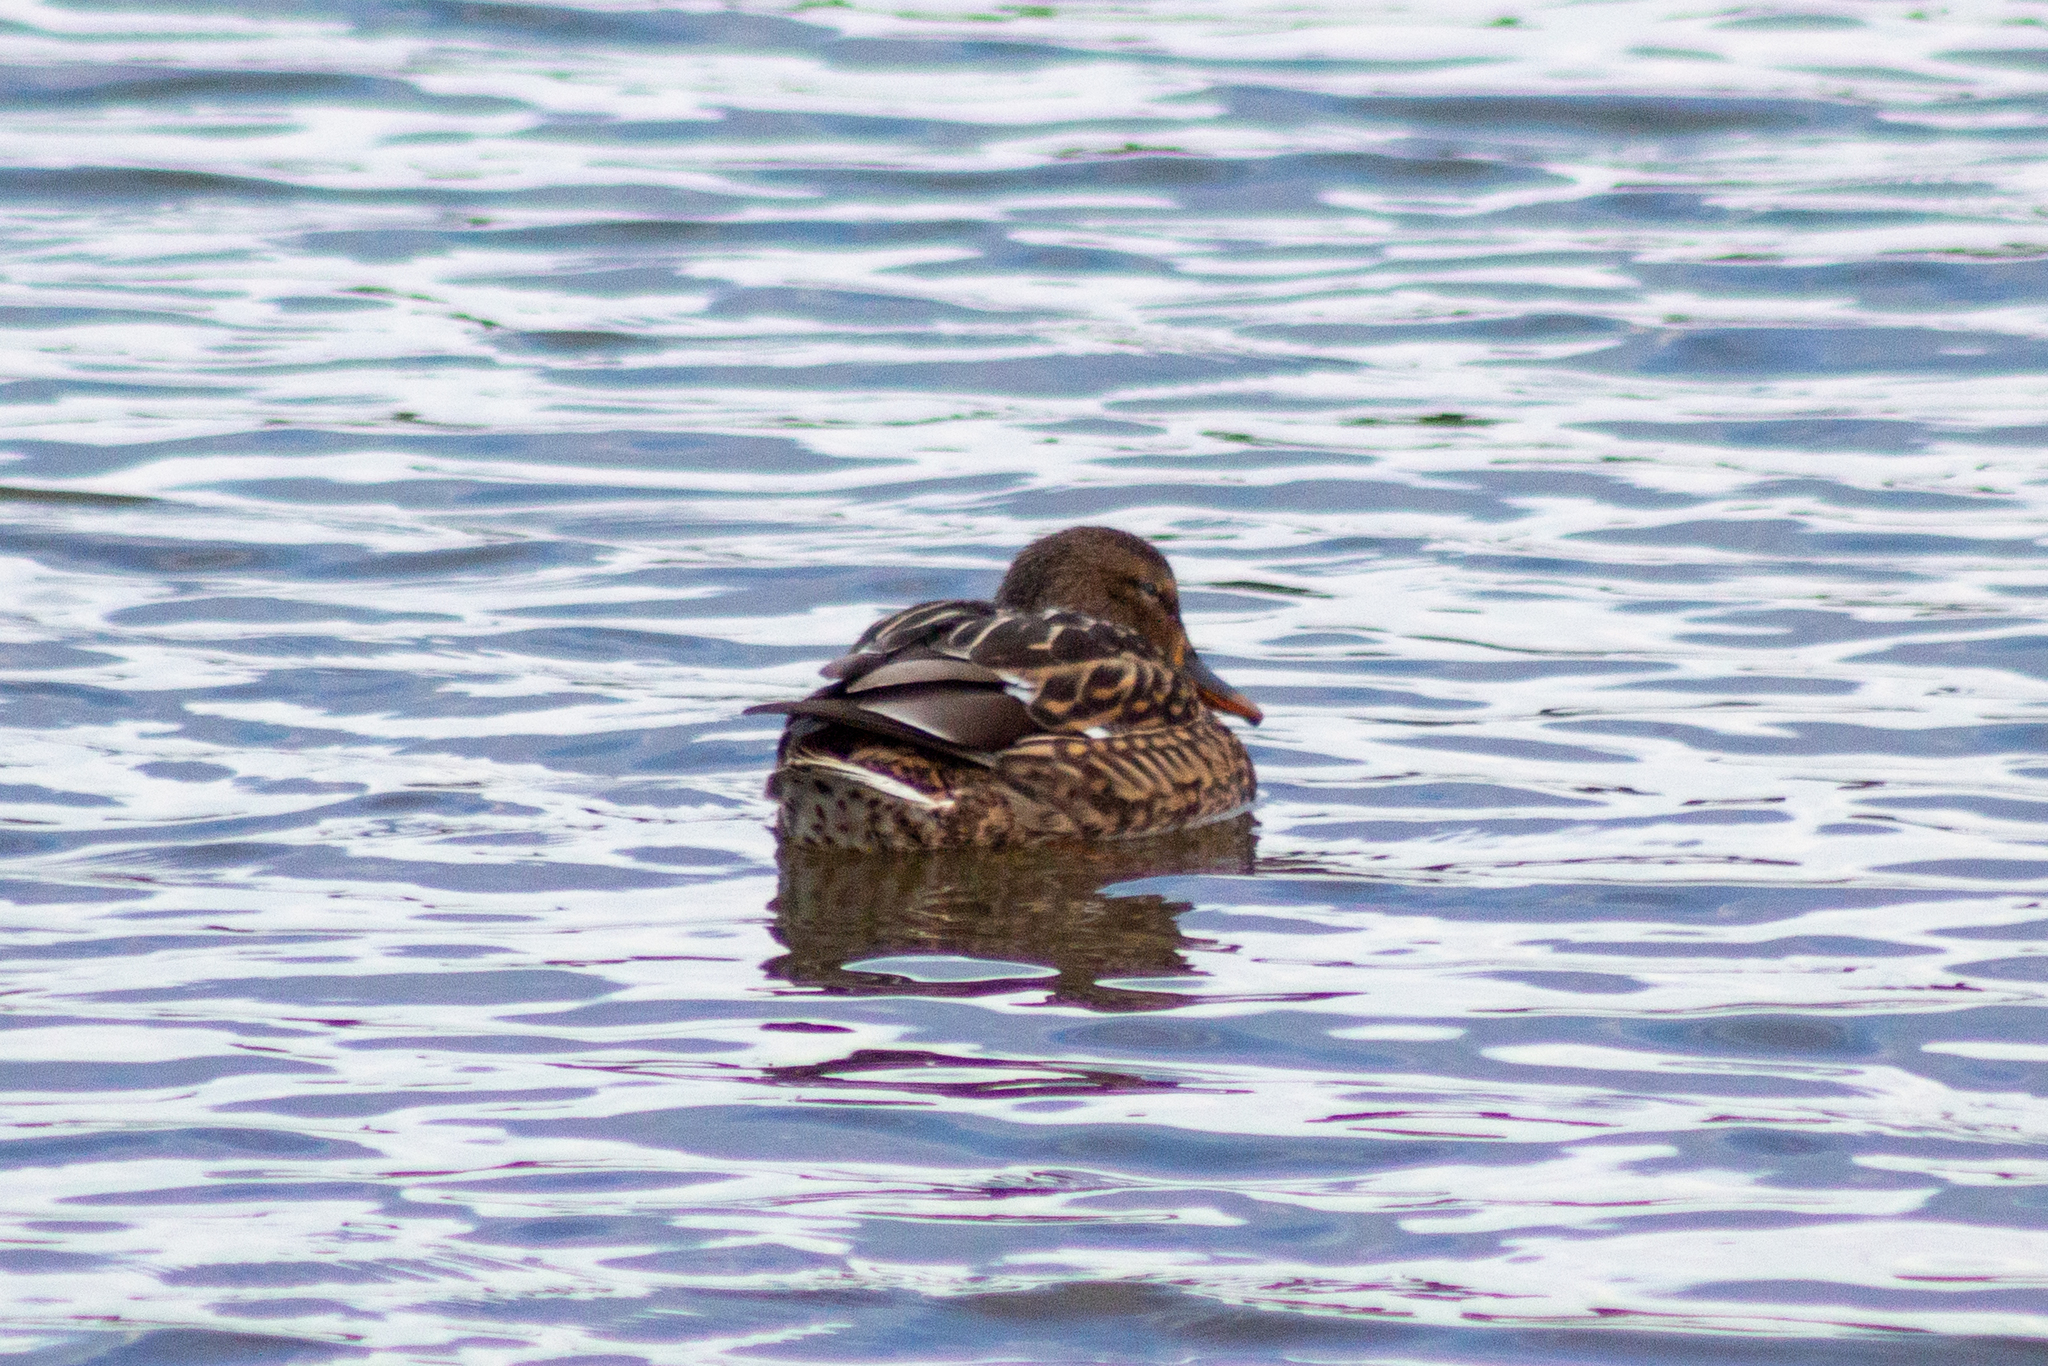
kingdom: Animalia
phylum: Chordata
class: Aves
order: Anseriformes
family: Anatidae
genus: Anas
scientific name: Anas platyrhynchos
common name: Mallard
